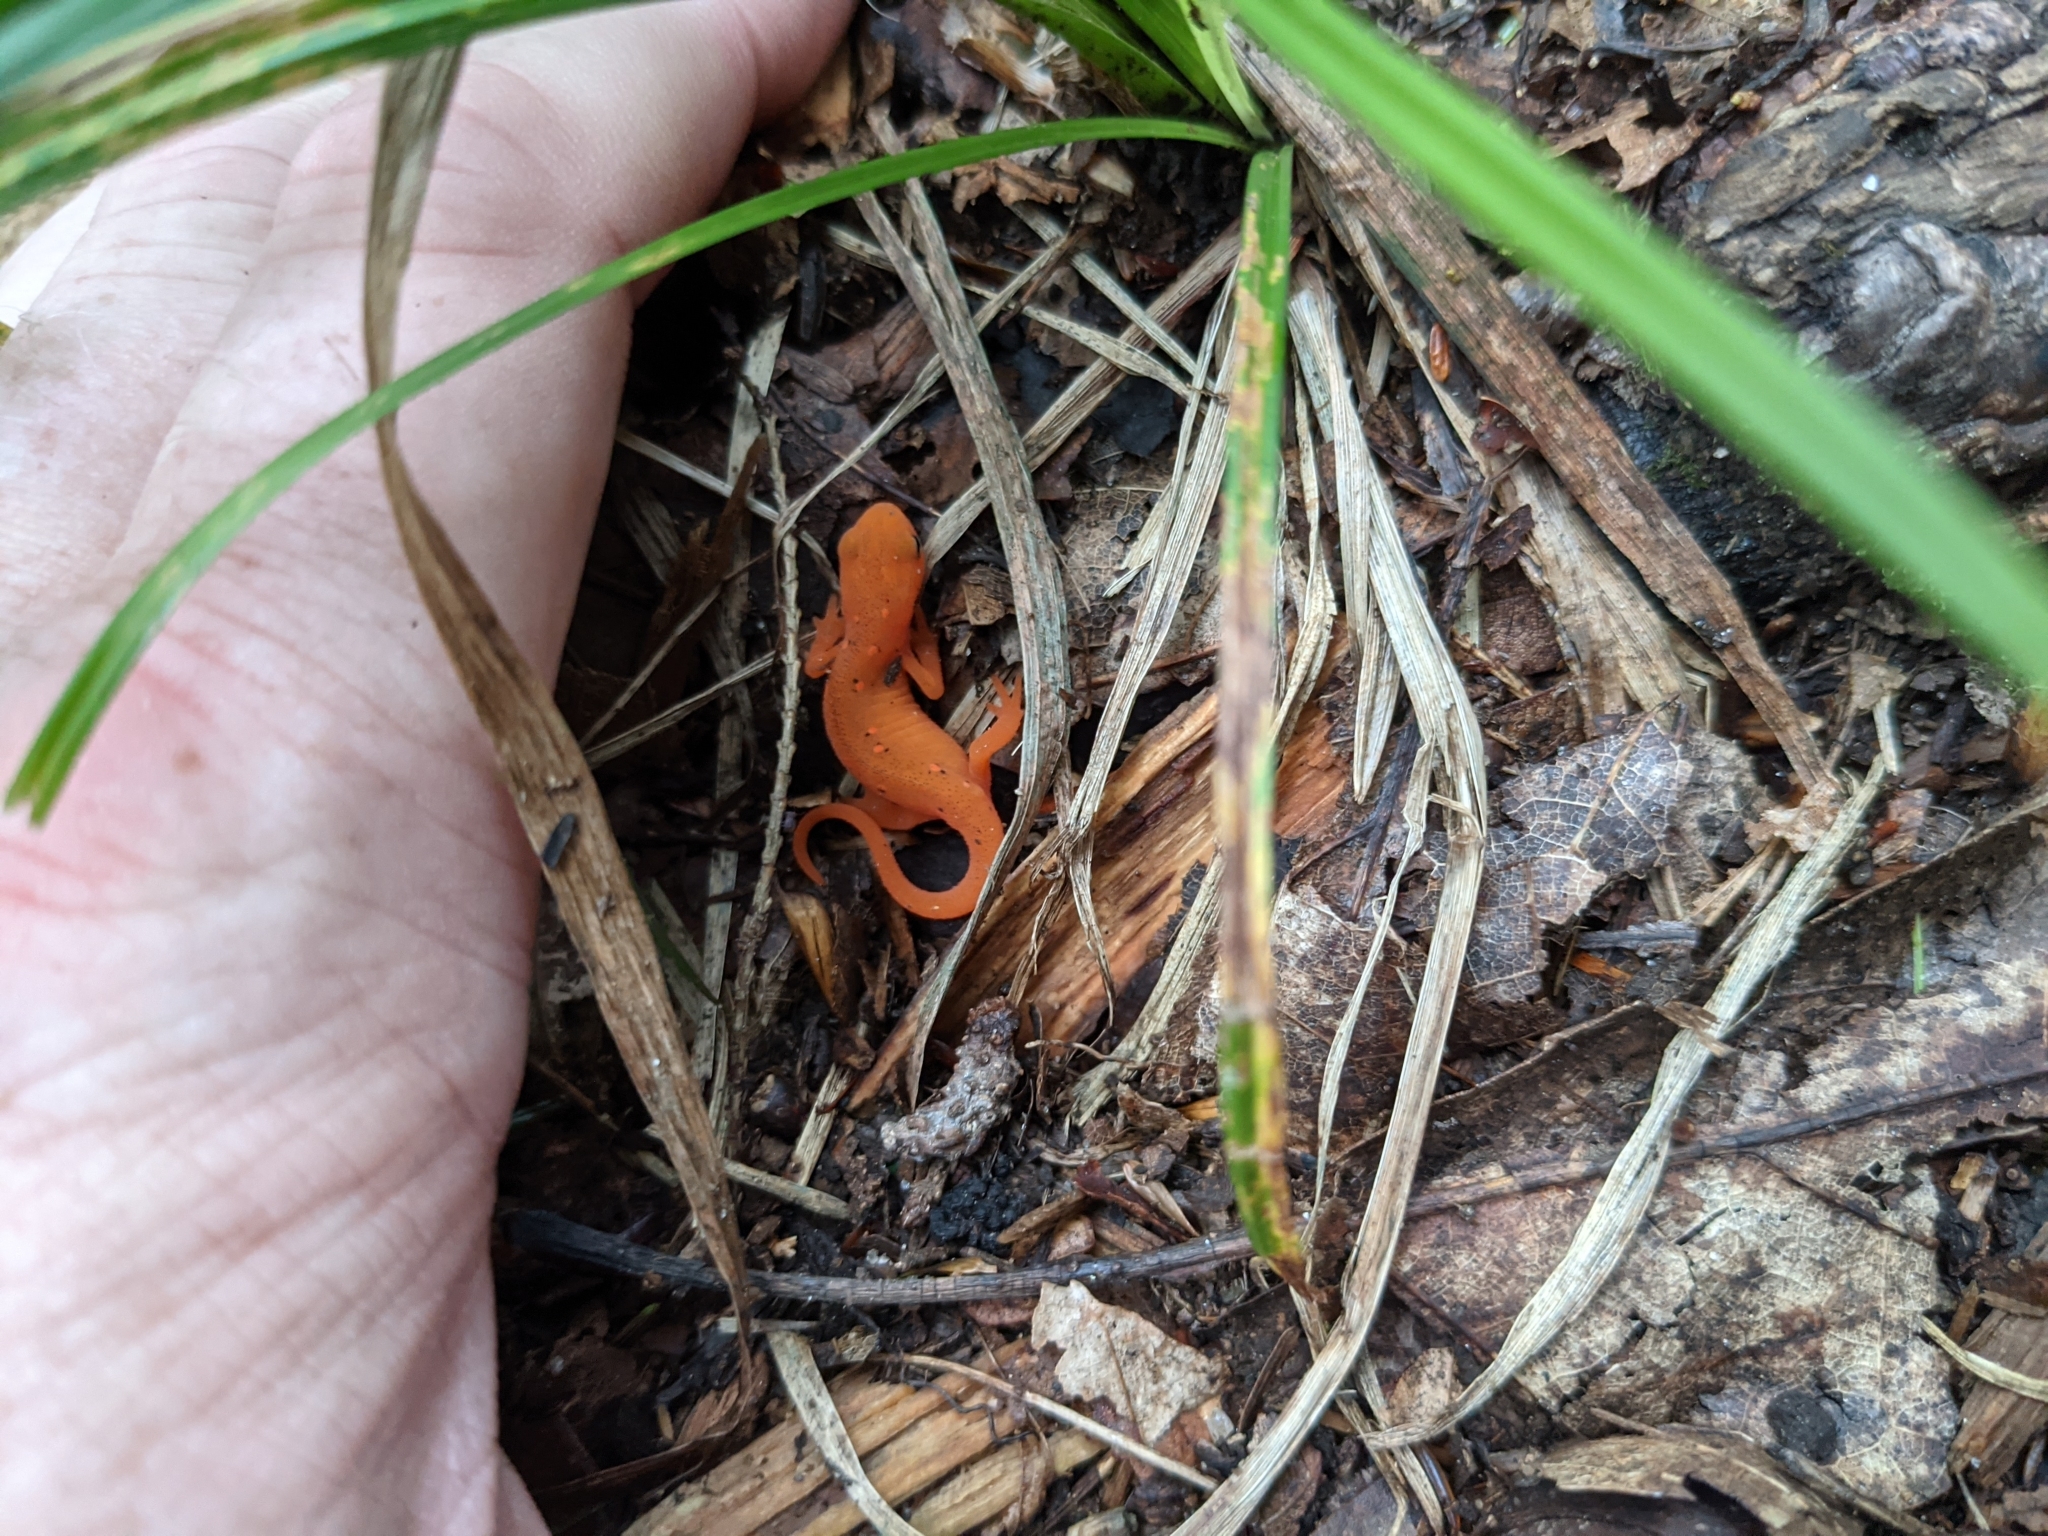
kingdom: Animalia
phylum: Chordata
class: Amphibia
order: Caudata
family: Salamandridae
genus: Notophthalmus
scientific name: Notophthalmus viridescens
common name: Eastern newt
